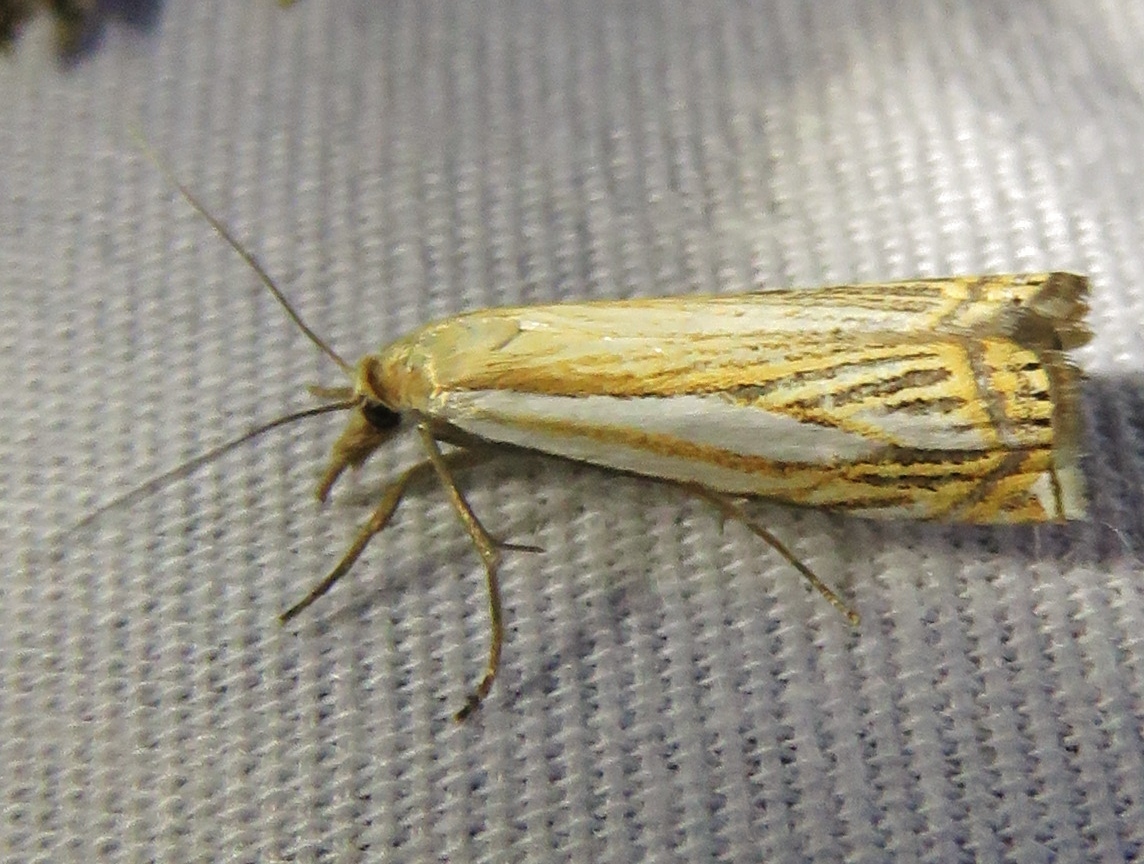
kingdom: Animalia
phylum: Arthropoda
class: Insecta
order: Lepidoptera
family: Crambidae
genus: Crambus
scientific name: Crambus saltuellus
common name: Pasture grass-veneer
